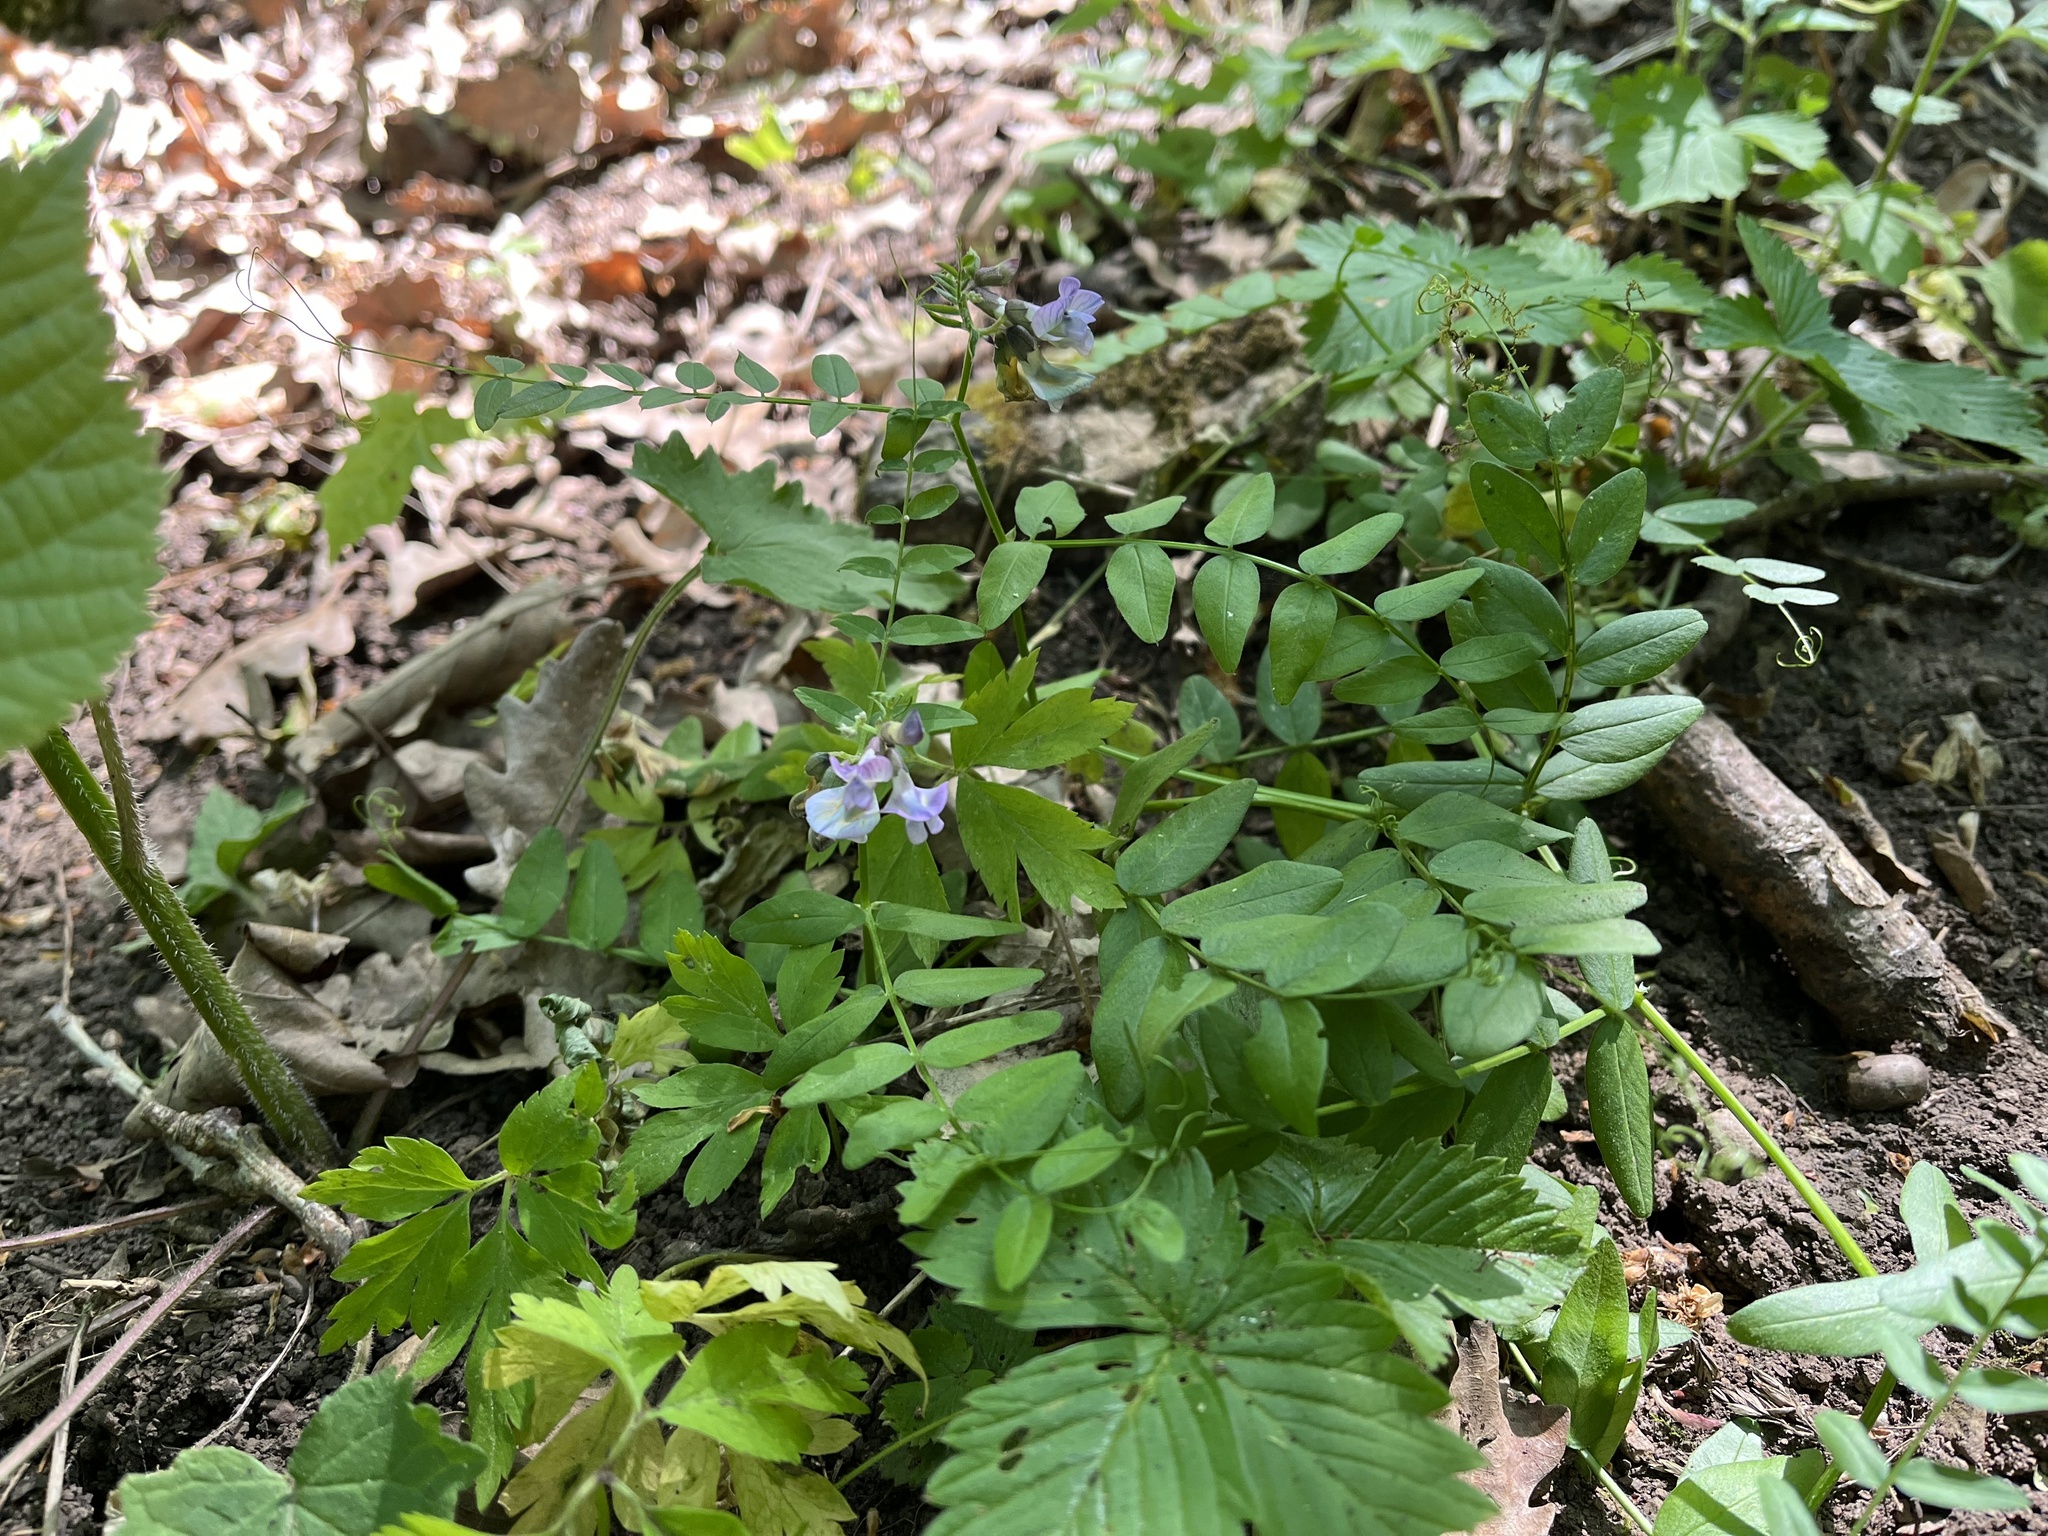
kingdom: Plantae
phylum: Tracheophyta
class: Magnoliopsida
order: Fabales
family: Fabaceae
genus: Vicia
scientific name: Vicia sepium
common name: Bush vetch
